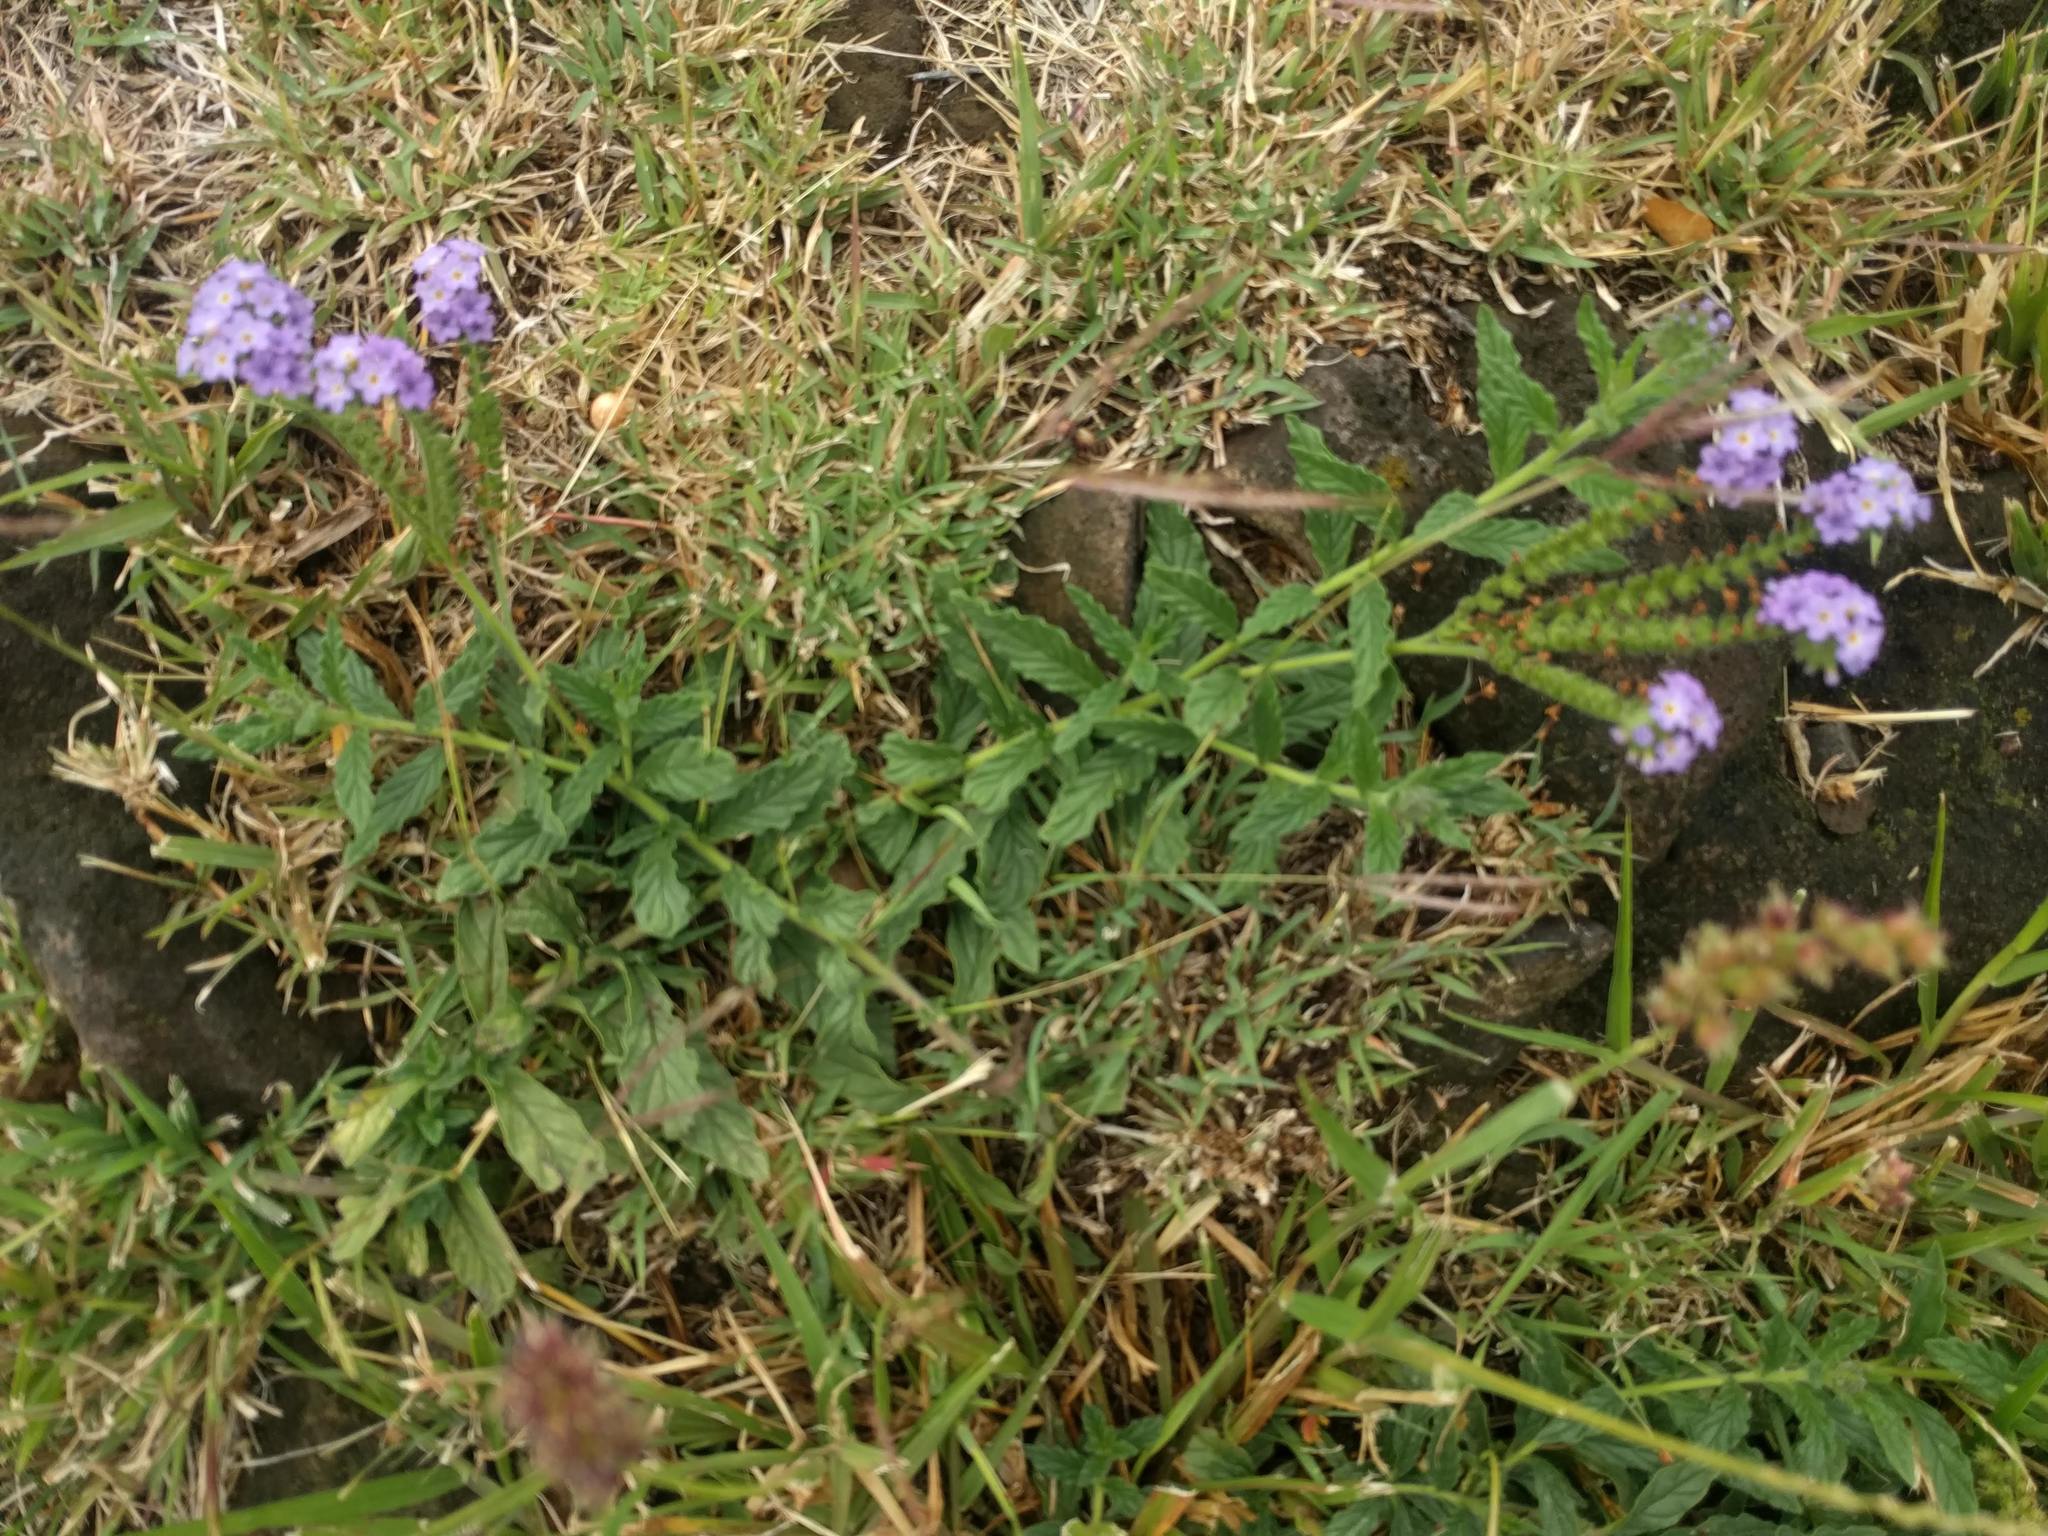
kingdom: Plantae
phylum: Tracheophyta
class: Magnoliopsida
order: Boraginales
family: Heliotropiaceae
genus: Heliotropium
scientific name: Heliotropium amplexicaule
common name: Clasping heliotrope
